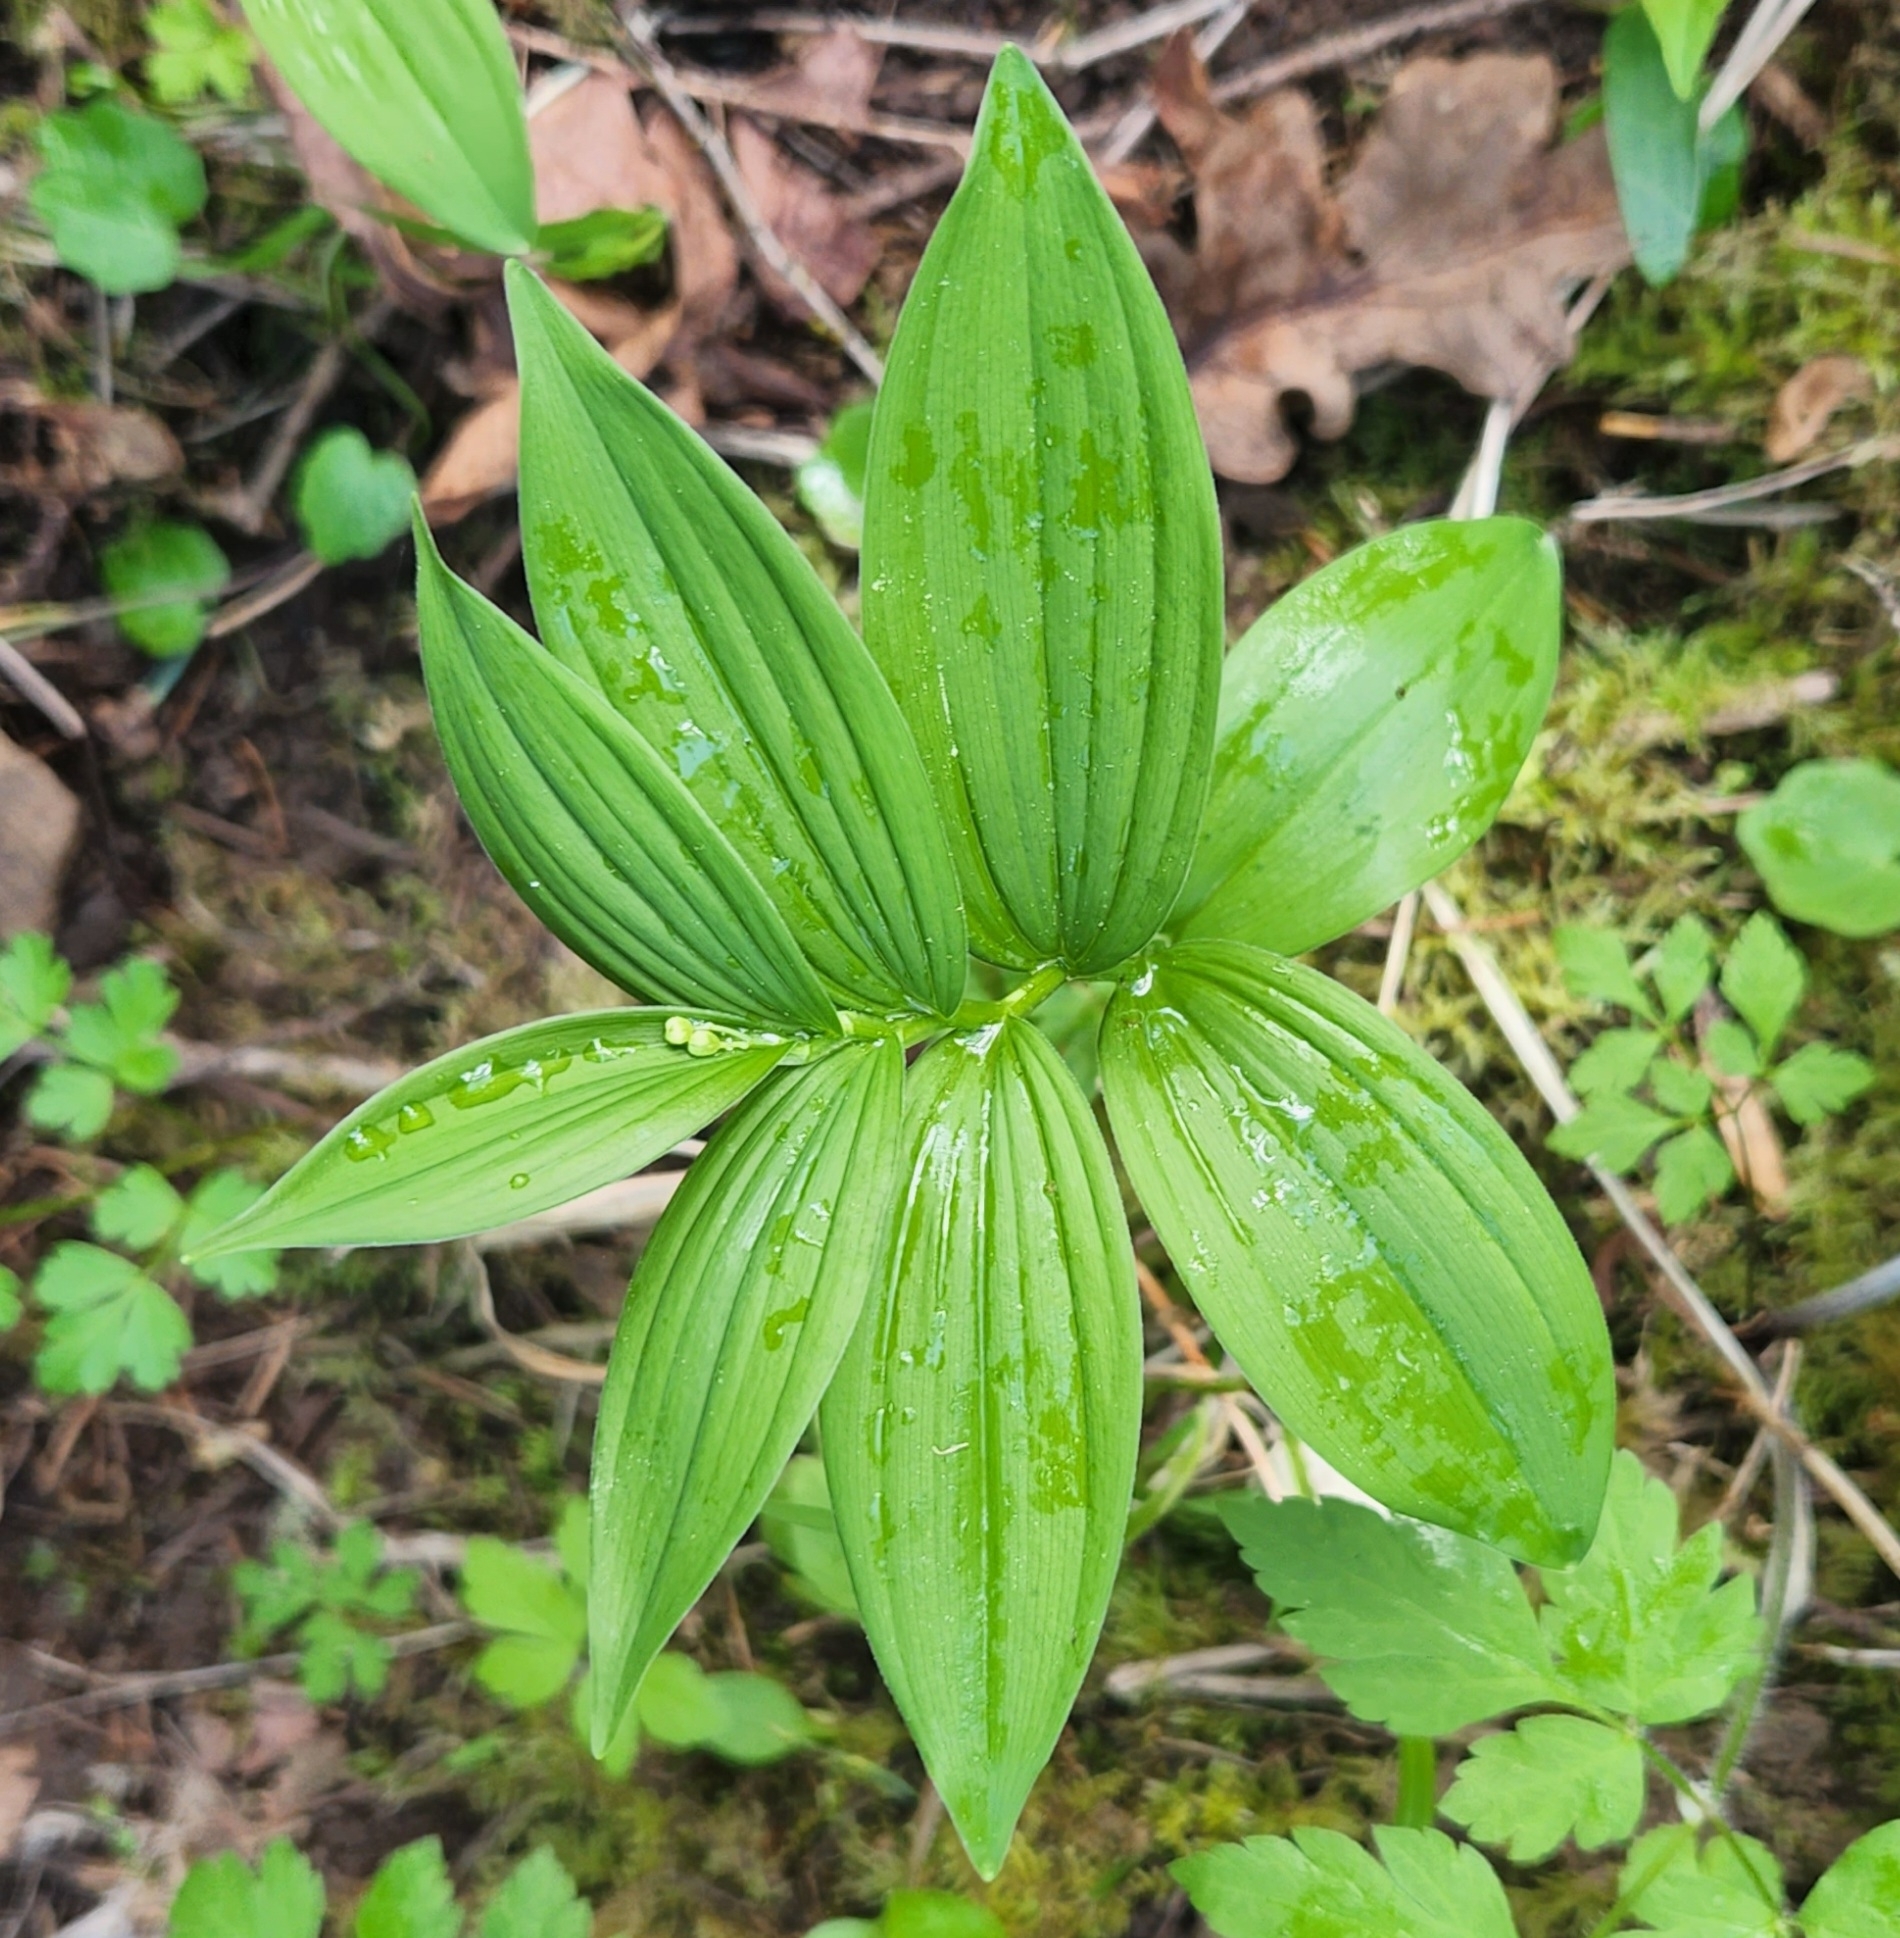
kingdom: Plantae
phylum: Tracheophyta
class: Liliopsida
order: Asparagales
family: Asparagaceae
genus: Maianthemum
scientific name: Maianthemum stellatum
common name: Little false solomon's seal
